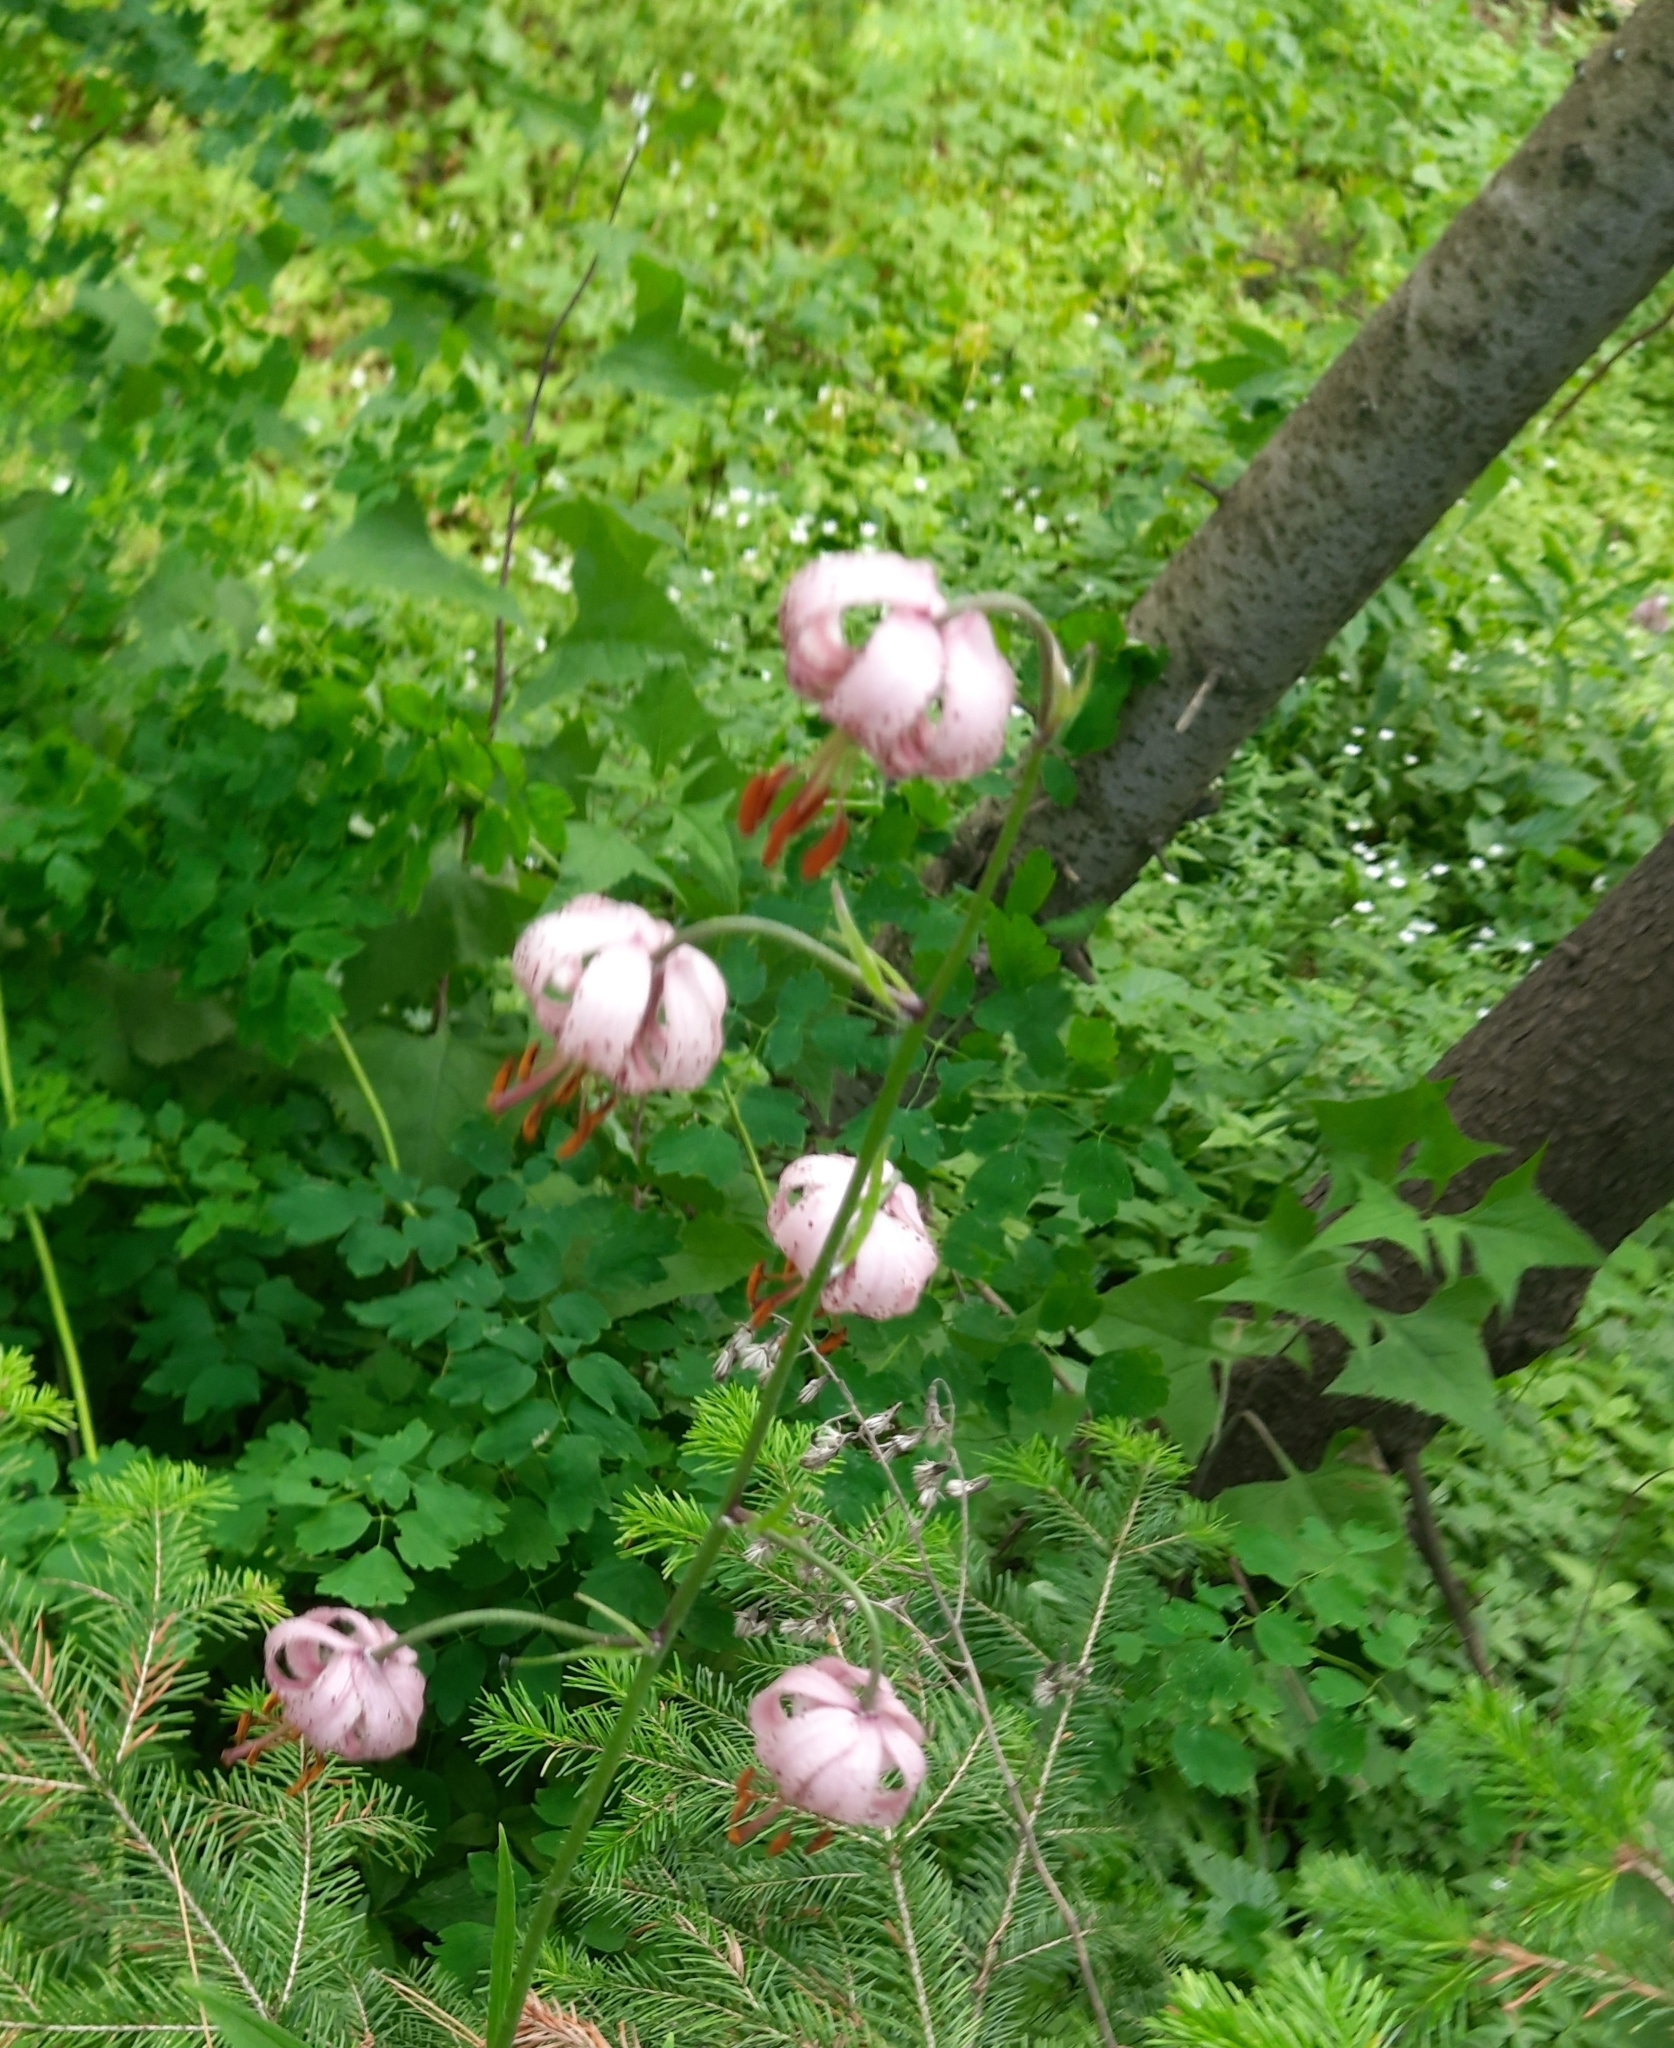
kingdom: Plantae
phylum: Tracheophyta
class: Liliopsida
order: Liliales
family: Liliaceae
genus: Lilium
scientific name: Lilium martagon
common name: Martagon lily
